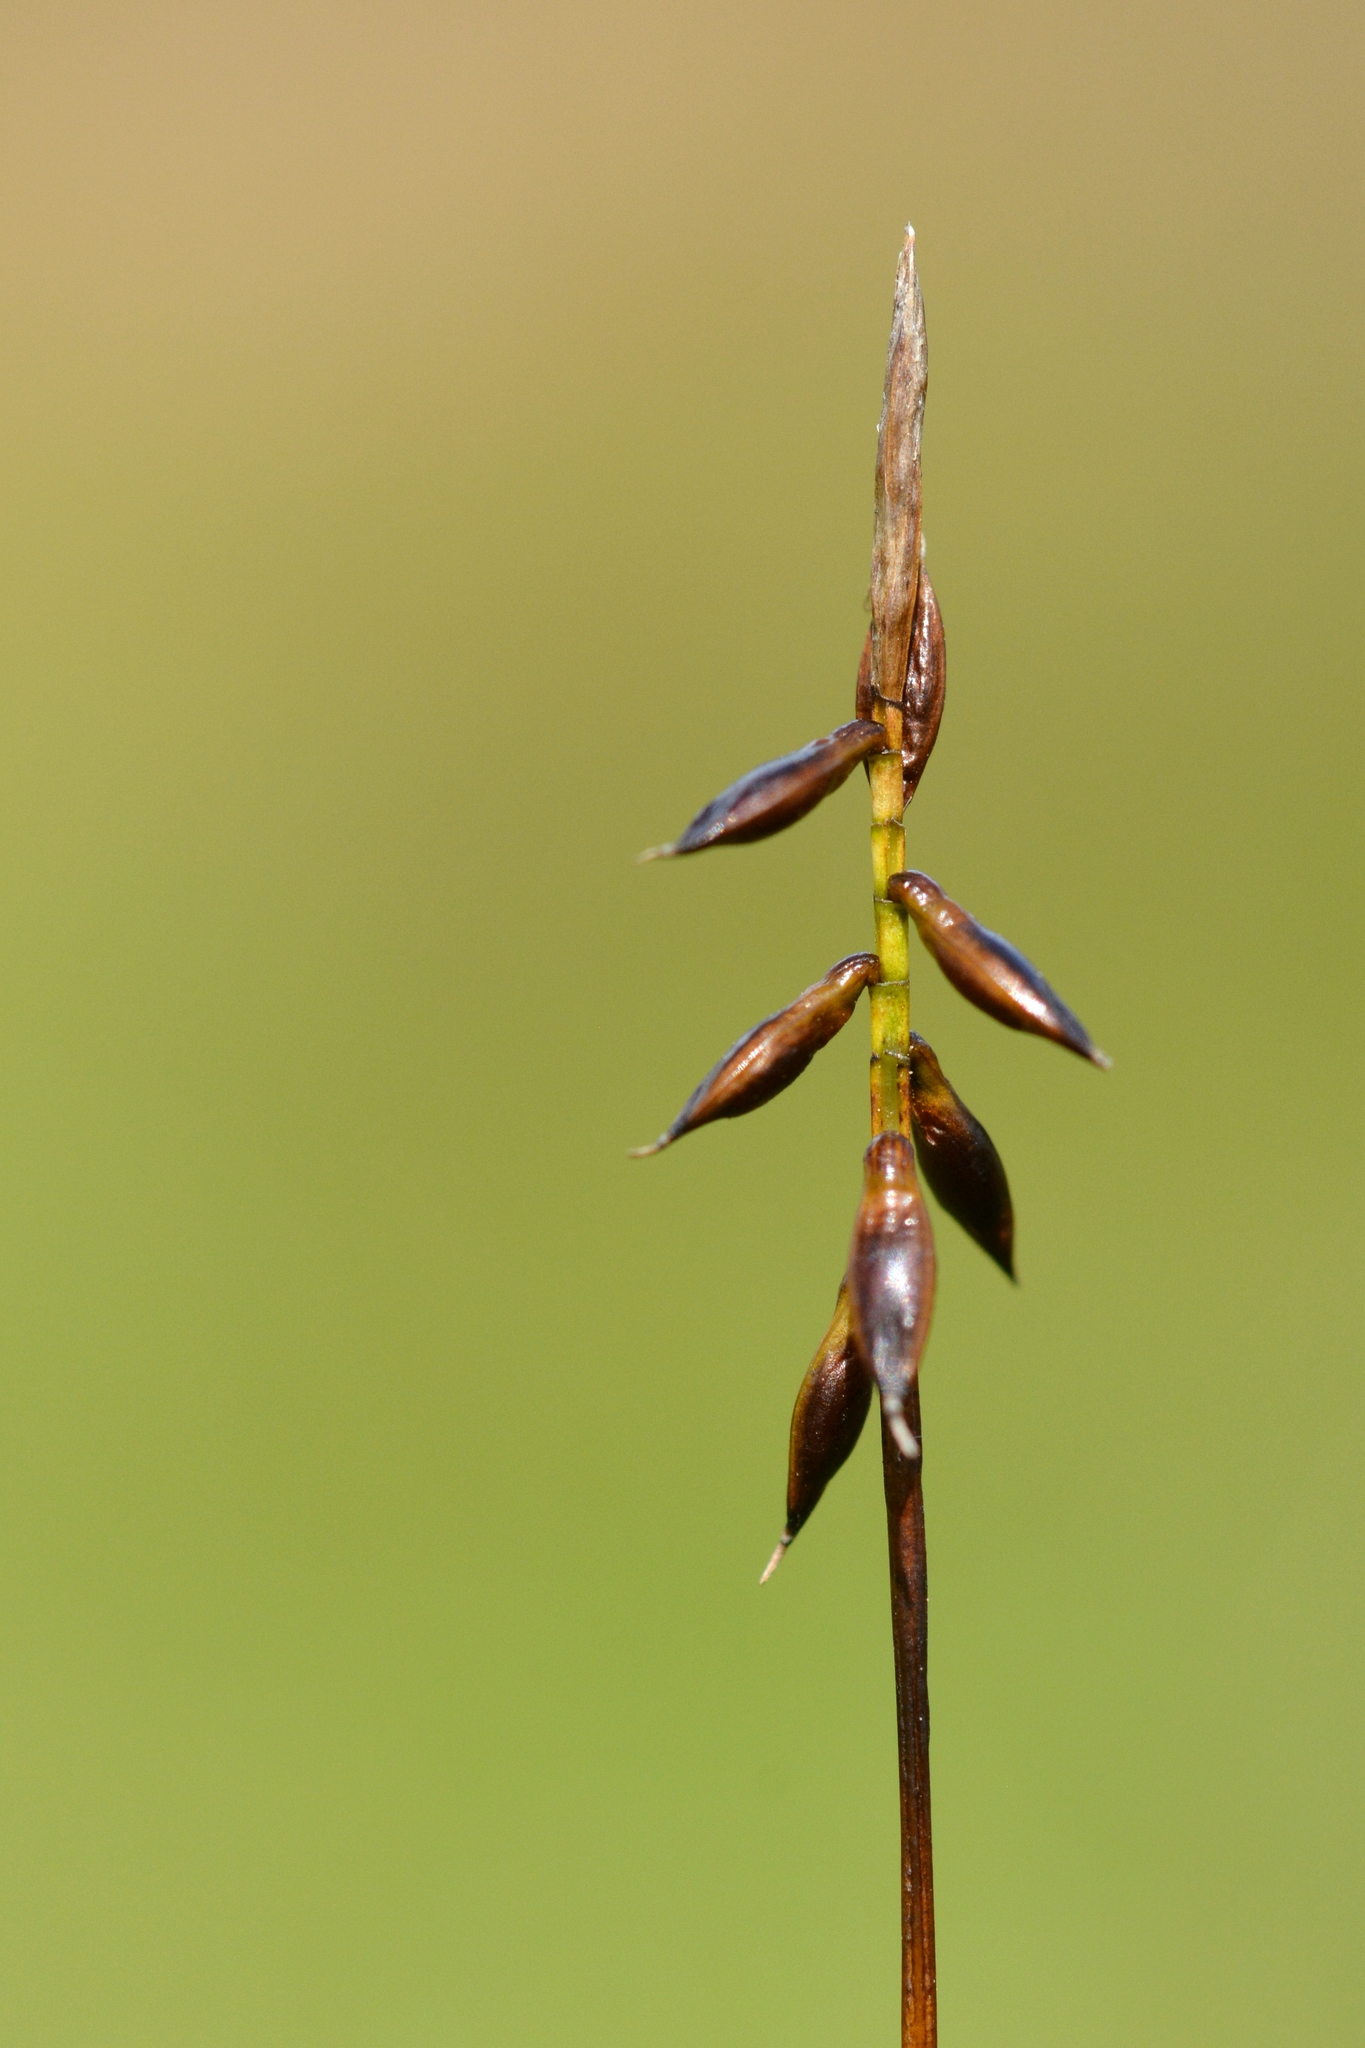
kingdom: Plantae
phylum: Tracheophyta
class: Liliopsida
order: Poales
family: Cyperaceae
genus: Carex
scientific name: Carex pulicaris
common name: Flea sedge
